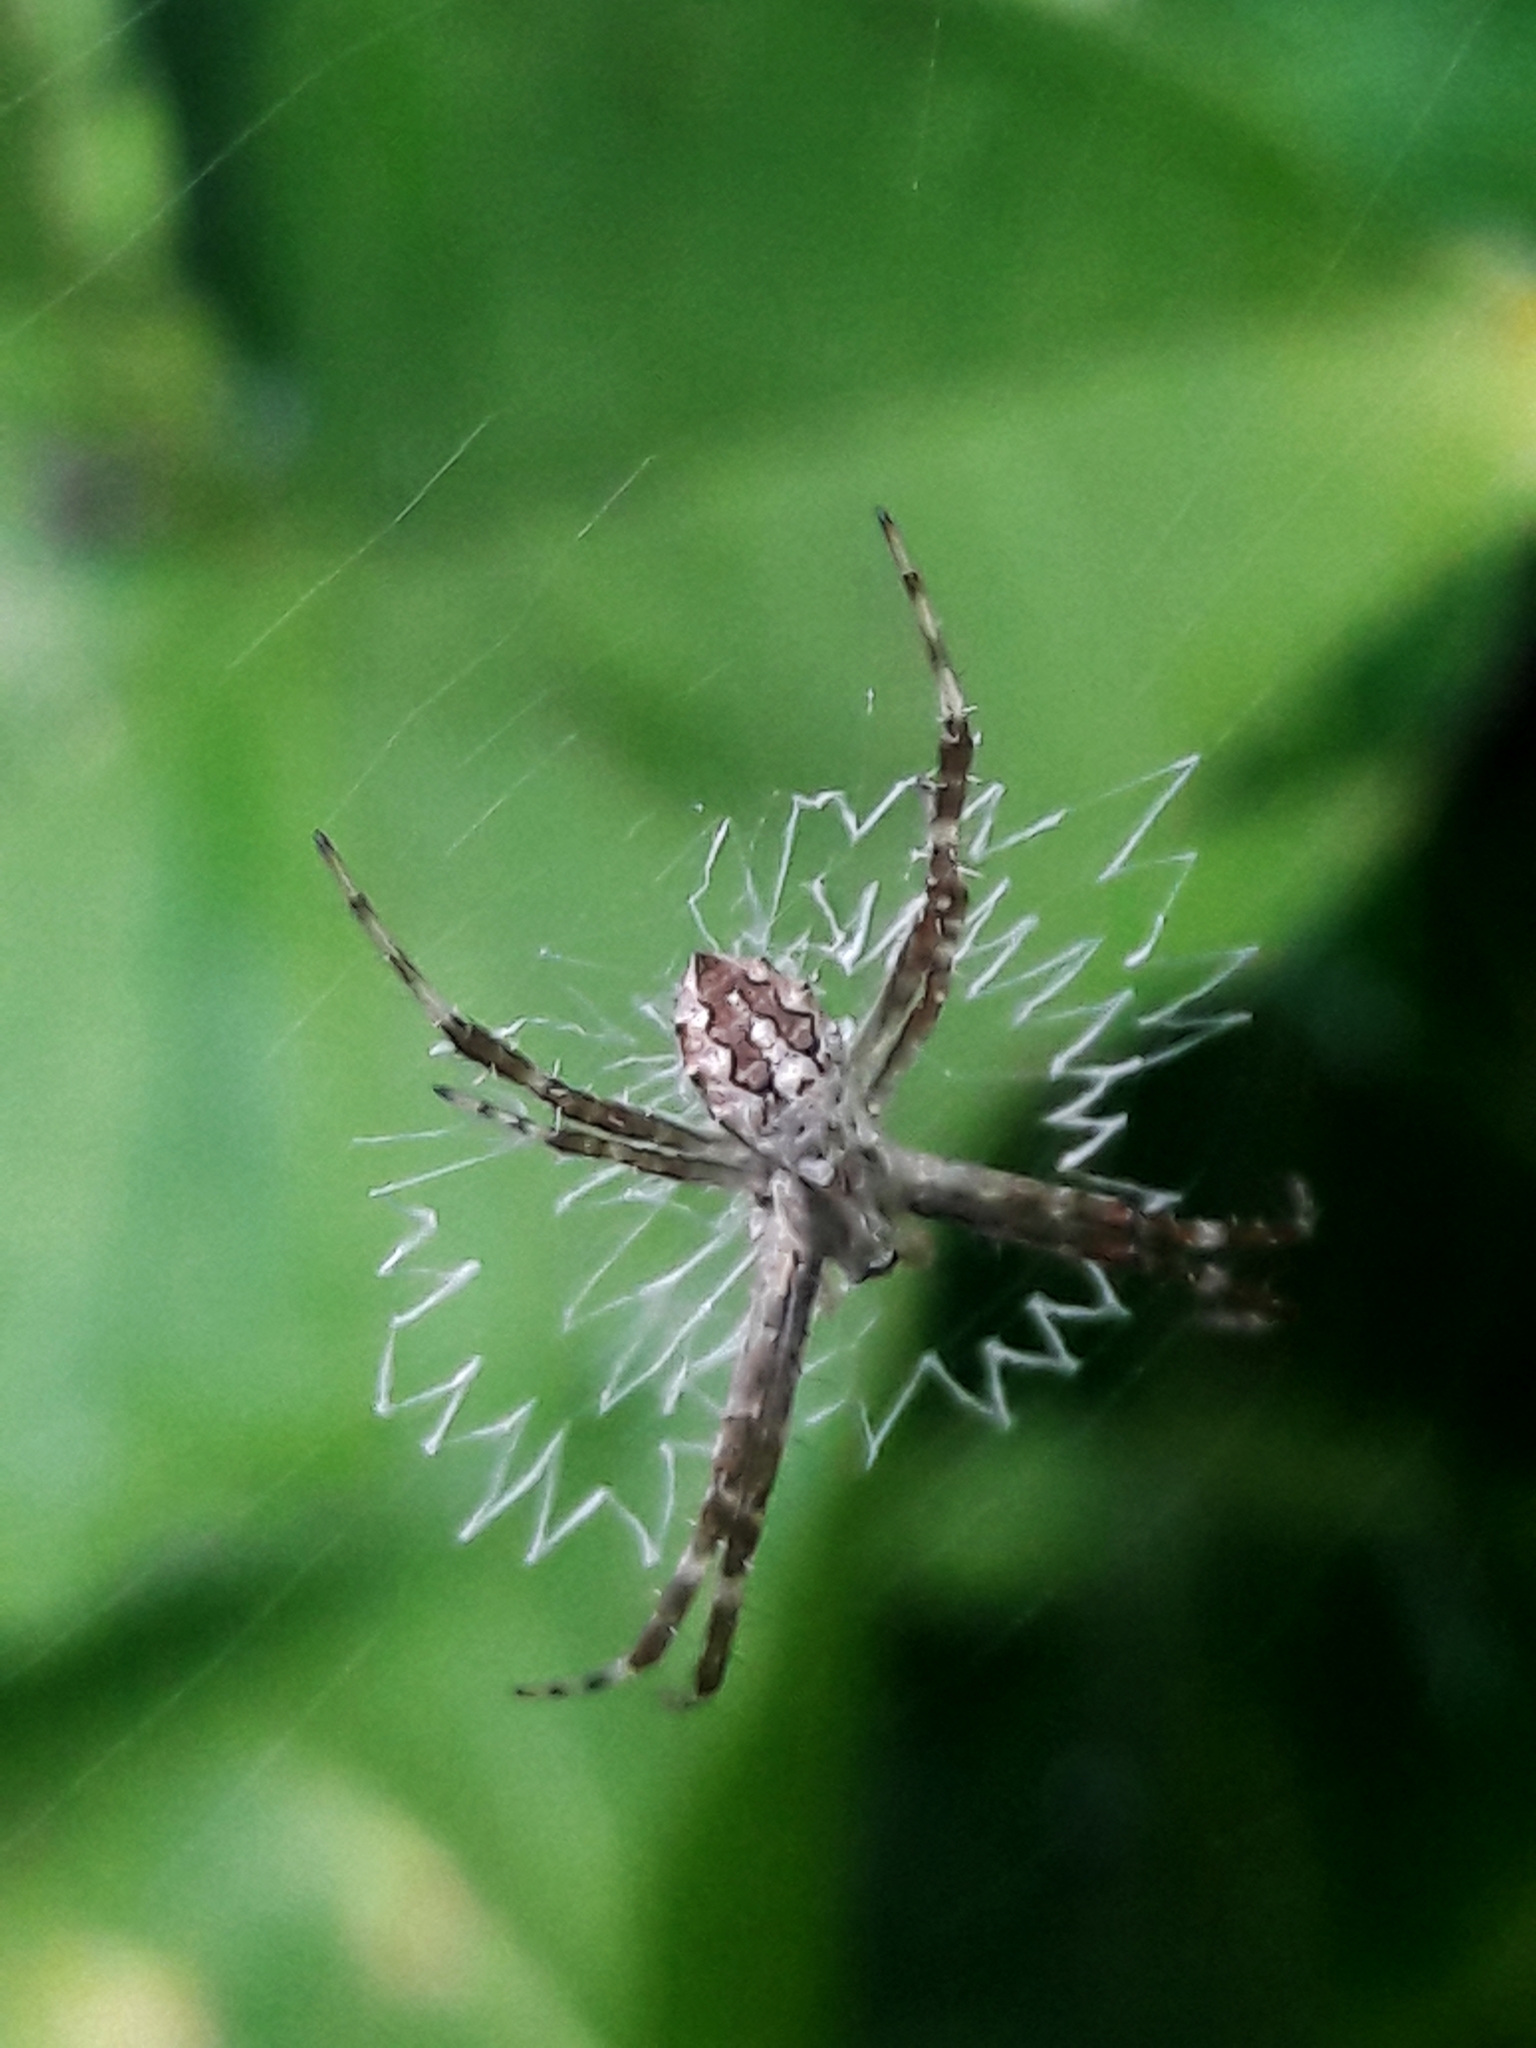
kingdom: Animalia
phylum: Arthropoda
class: Arachnida
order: Araneae
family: Araneidae
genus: Argiope
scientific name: Argiope argentata
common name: Orb weavers
